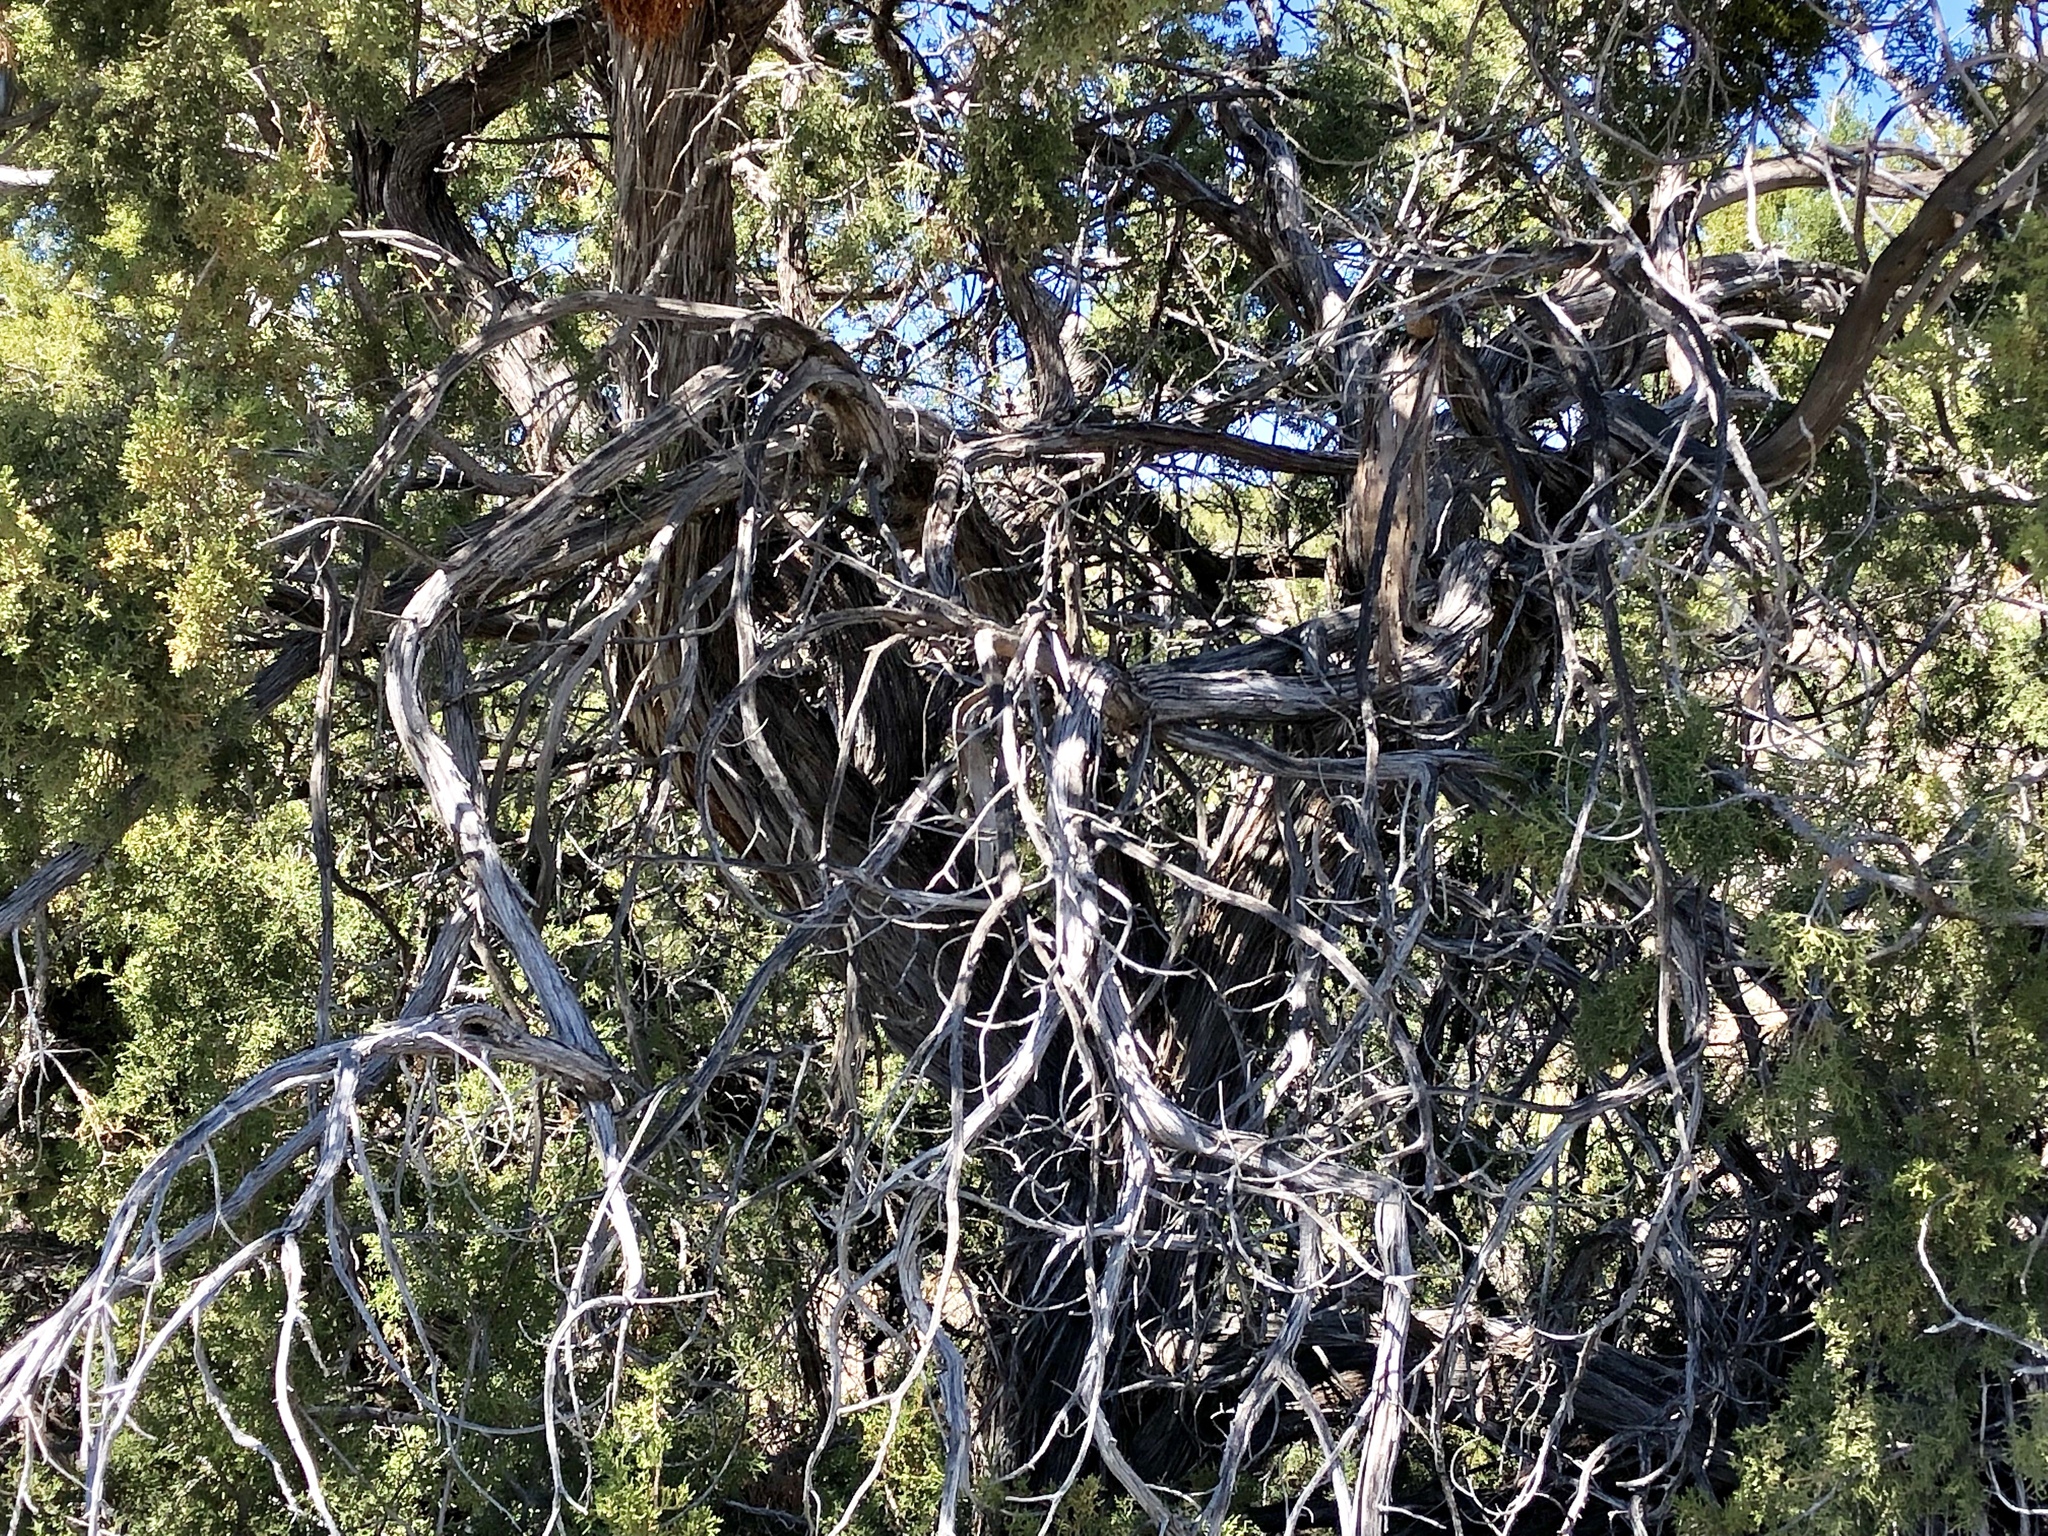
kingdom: Plantae
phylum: Tracheophyta
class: Pinopsida
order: Pinales
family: Cupressaceae
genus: Juniperus
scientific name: Juniperus monosperma
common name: One-seed juniper
